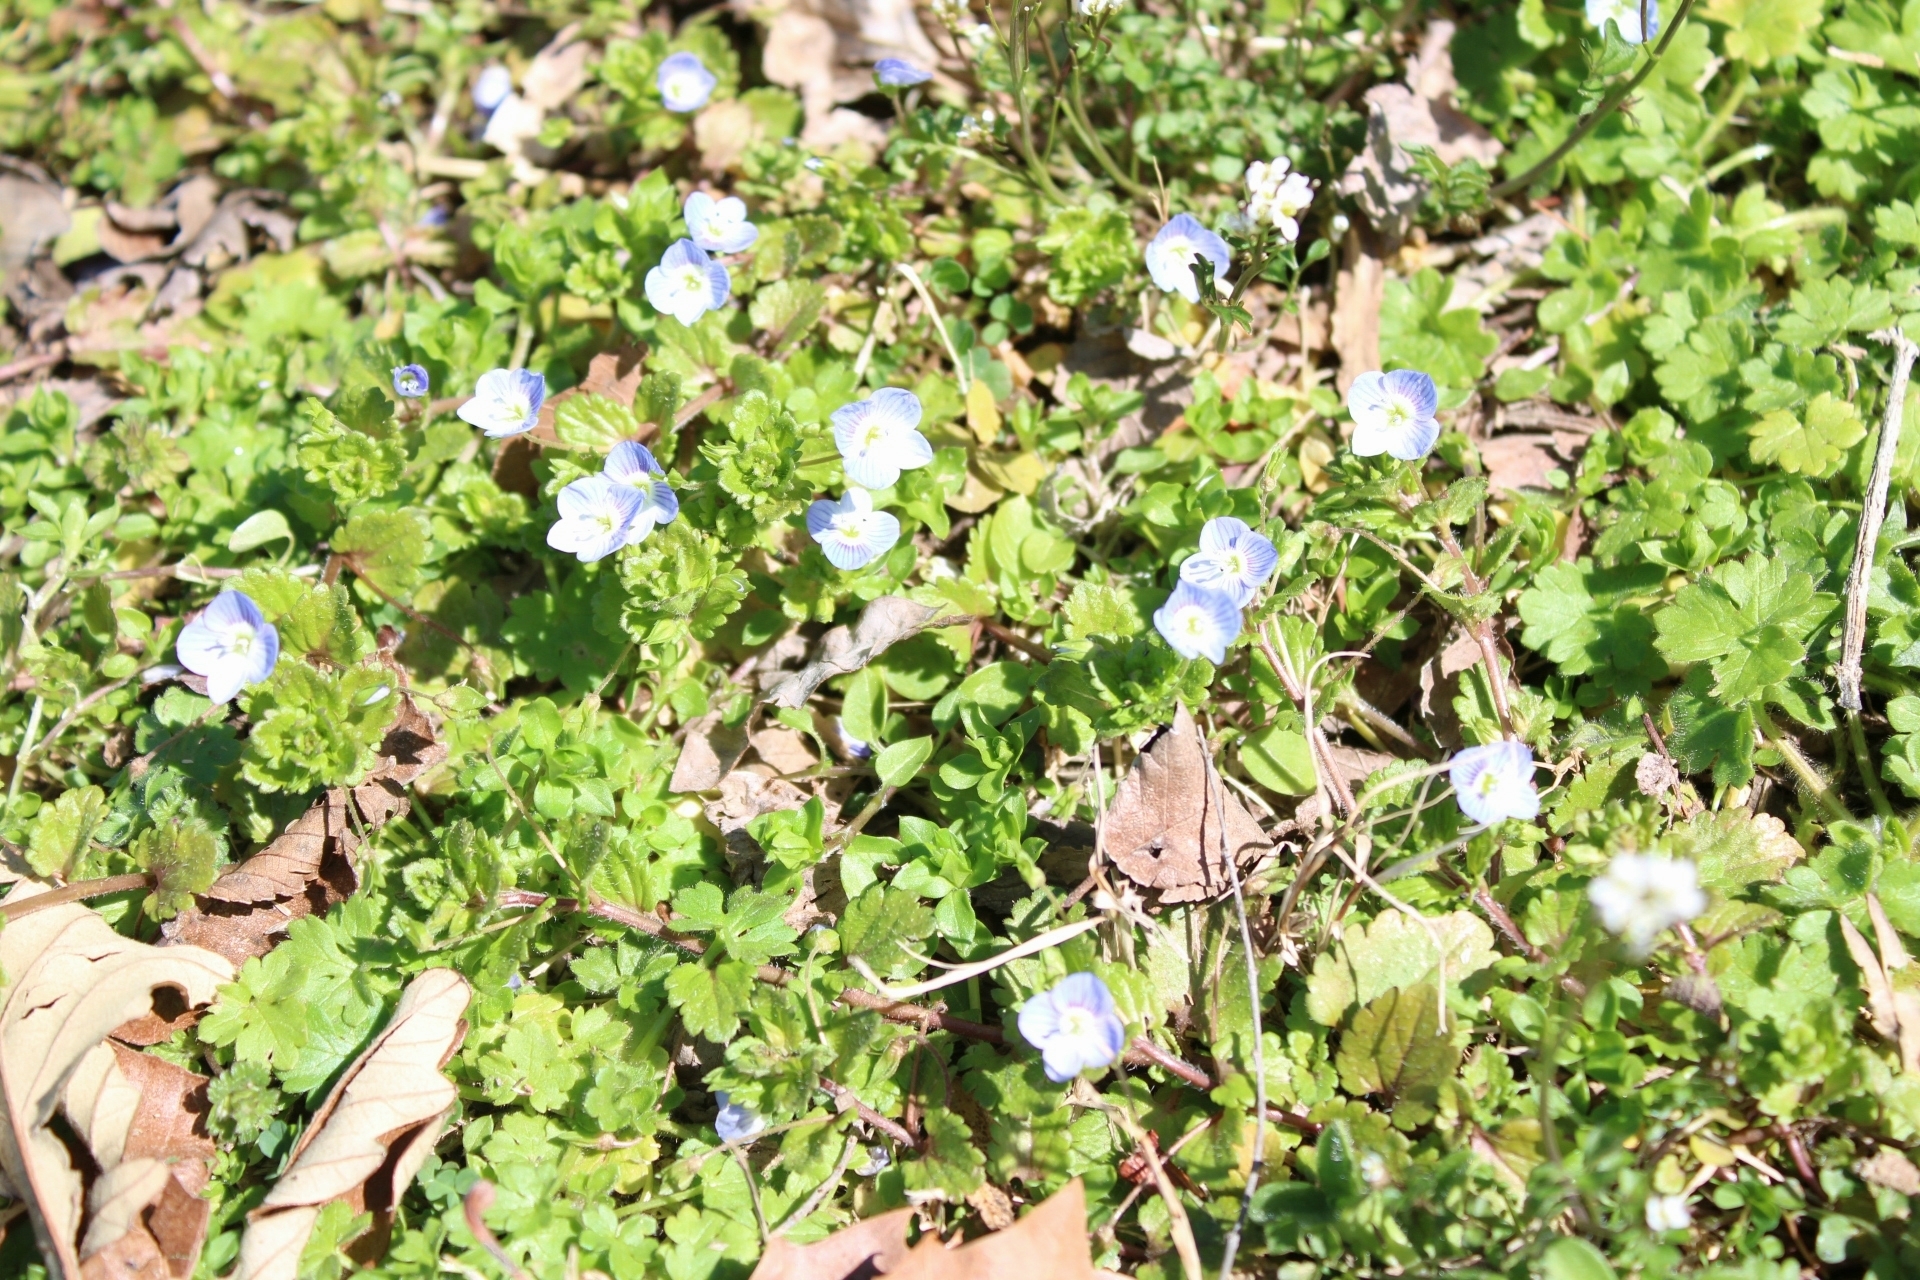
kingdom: Plantae
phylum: Tracheophyta
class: Magnoliopsida
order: Lamiales
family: Plantaginaceae
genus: Veronica
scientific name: Veronica persica
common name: Common field-speedwell
